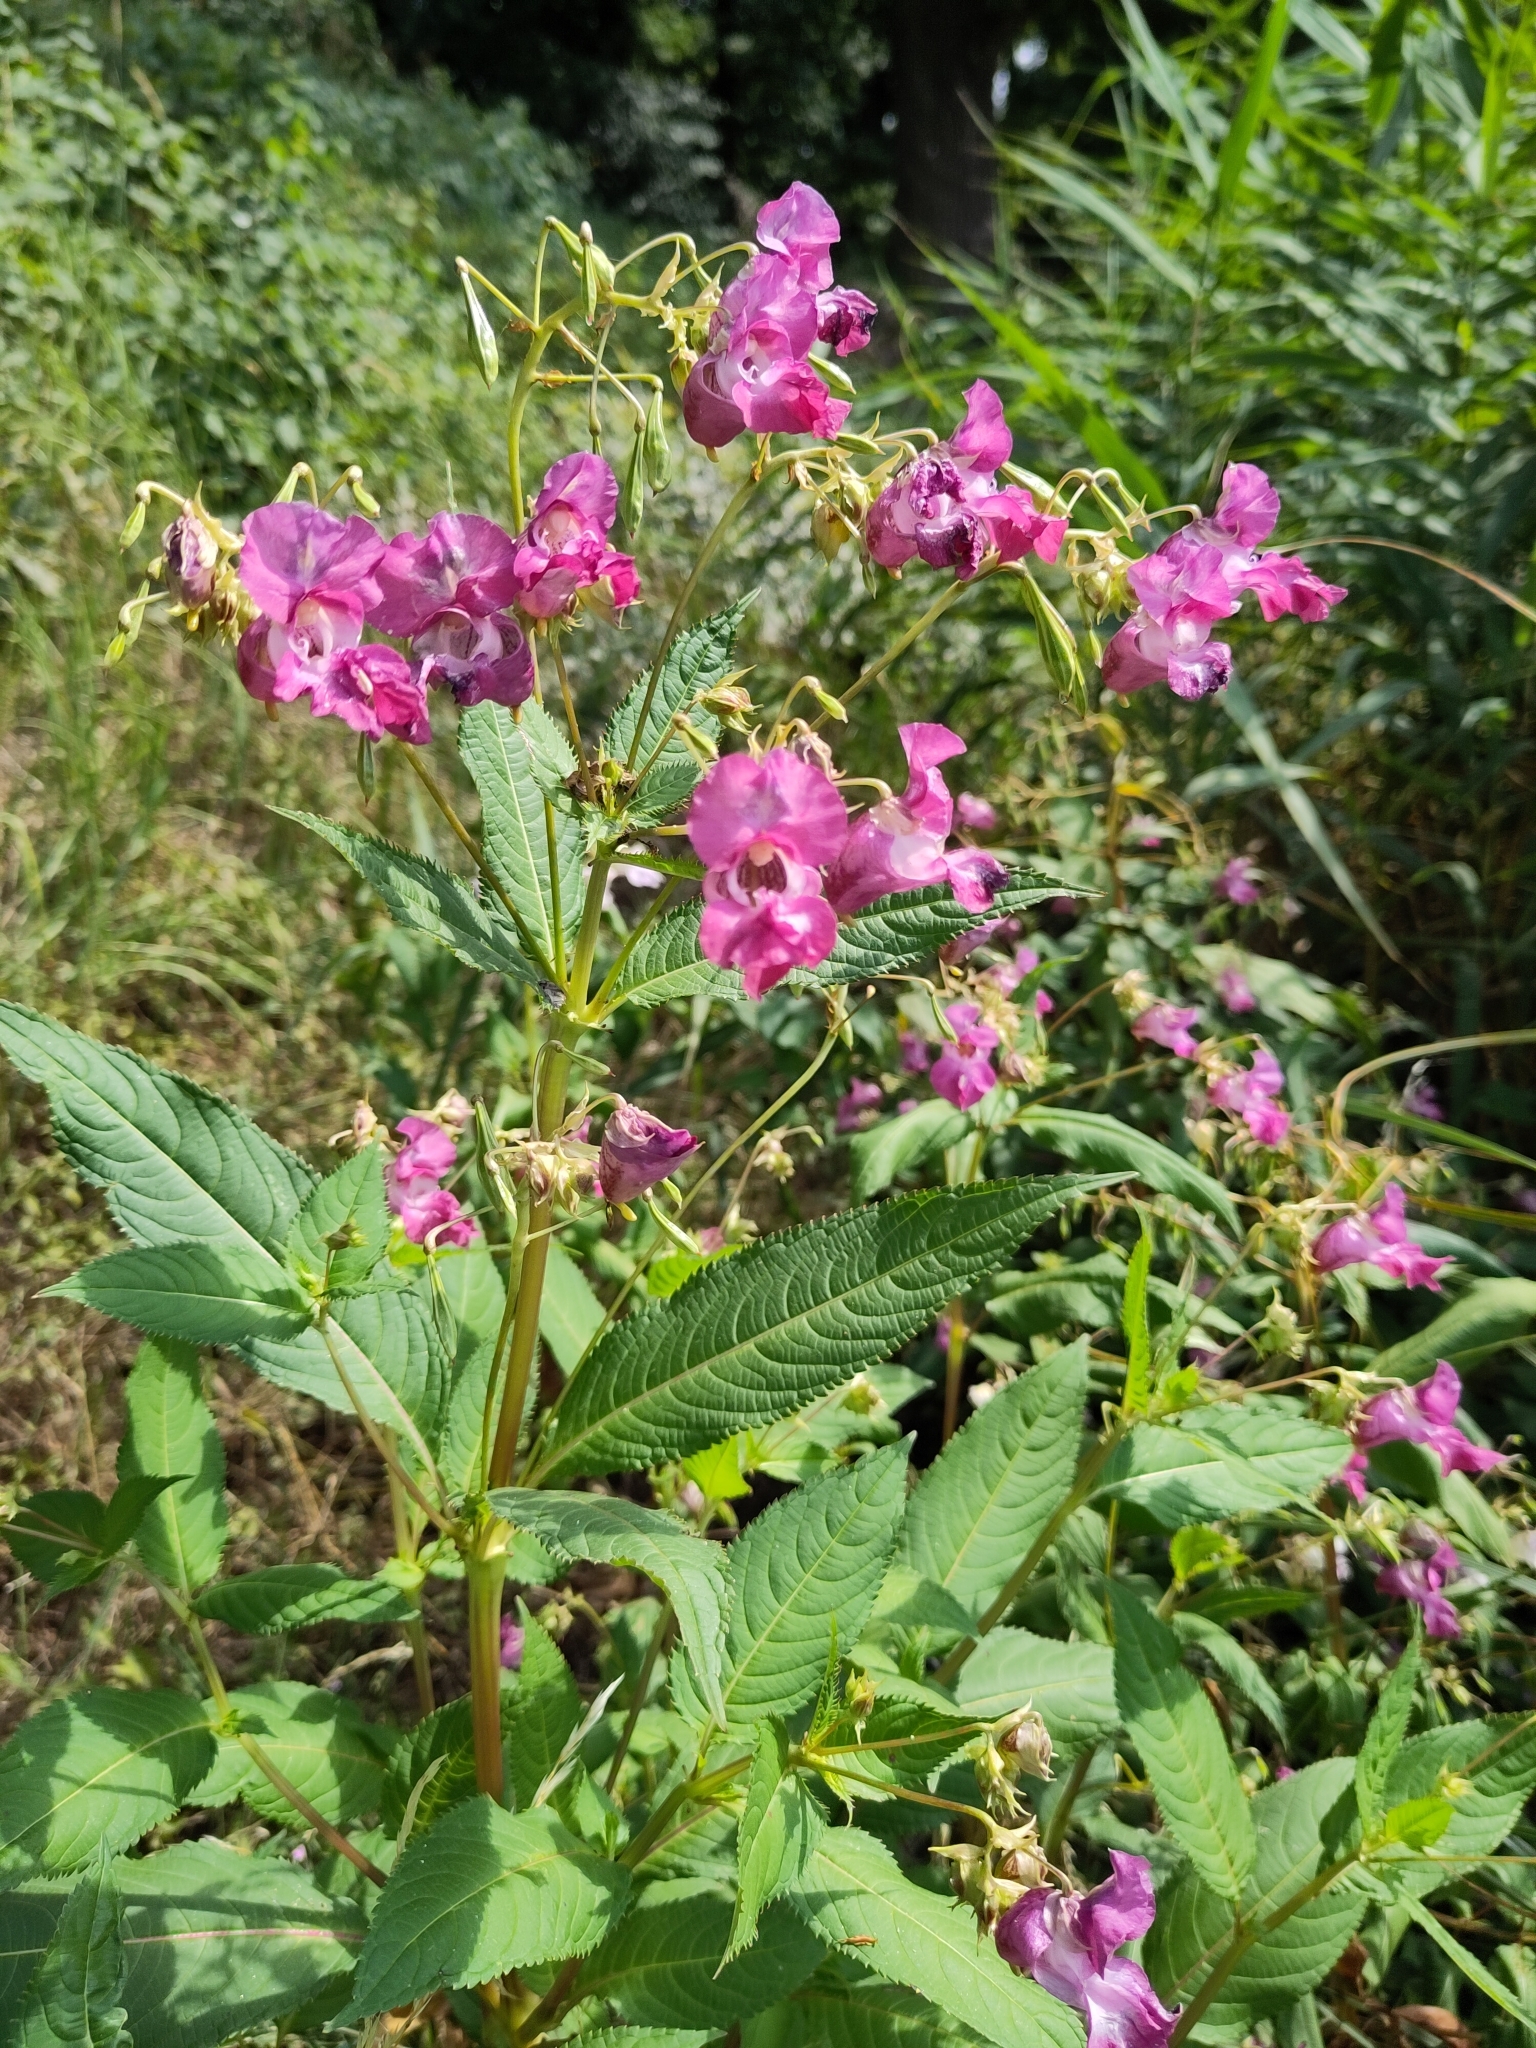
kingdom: Plantae
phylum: Tracheophyta
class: Magnoliopsida
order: Ericales
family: Balsaminaceae
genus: Impatiens
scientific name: Impatiens glandulifera
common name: Himalayan balsam
